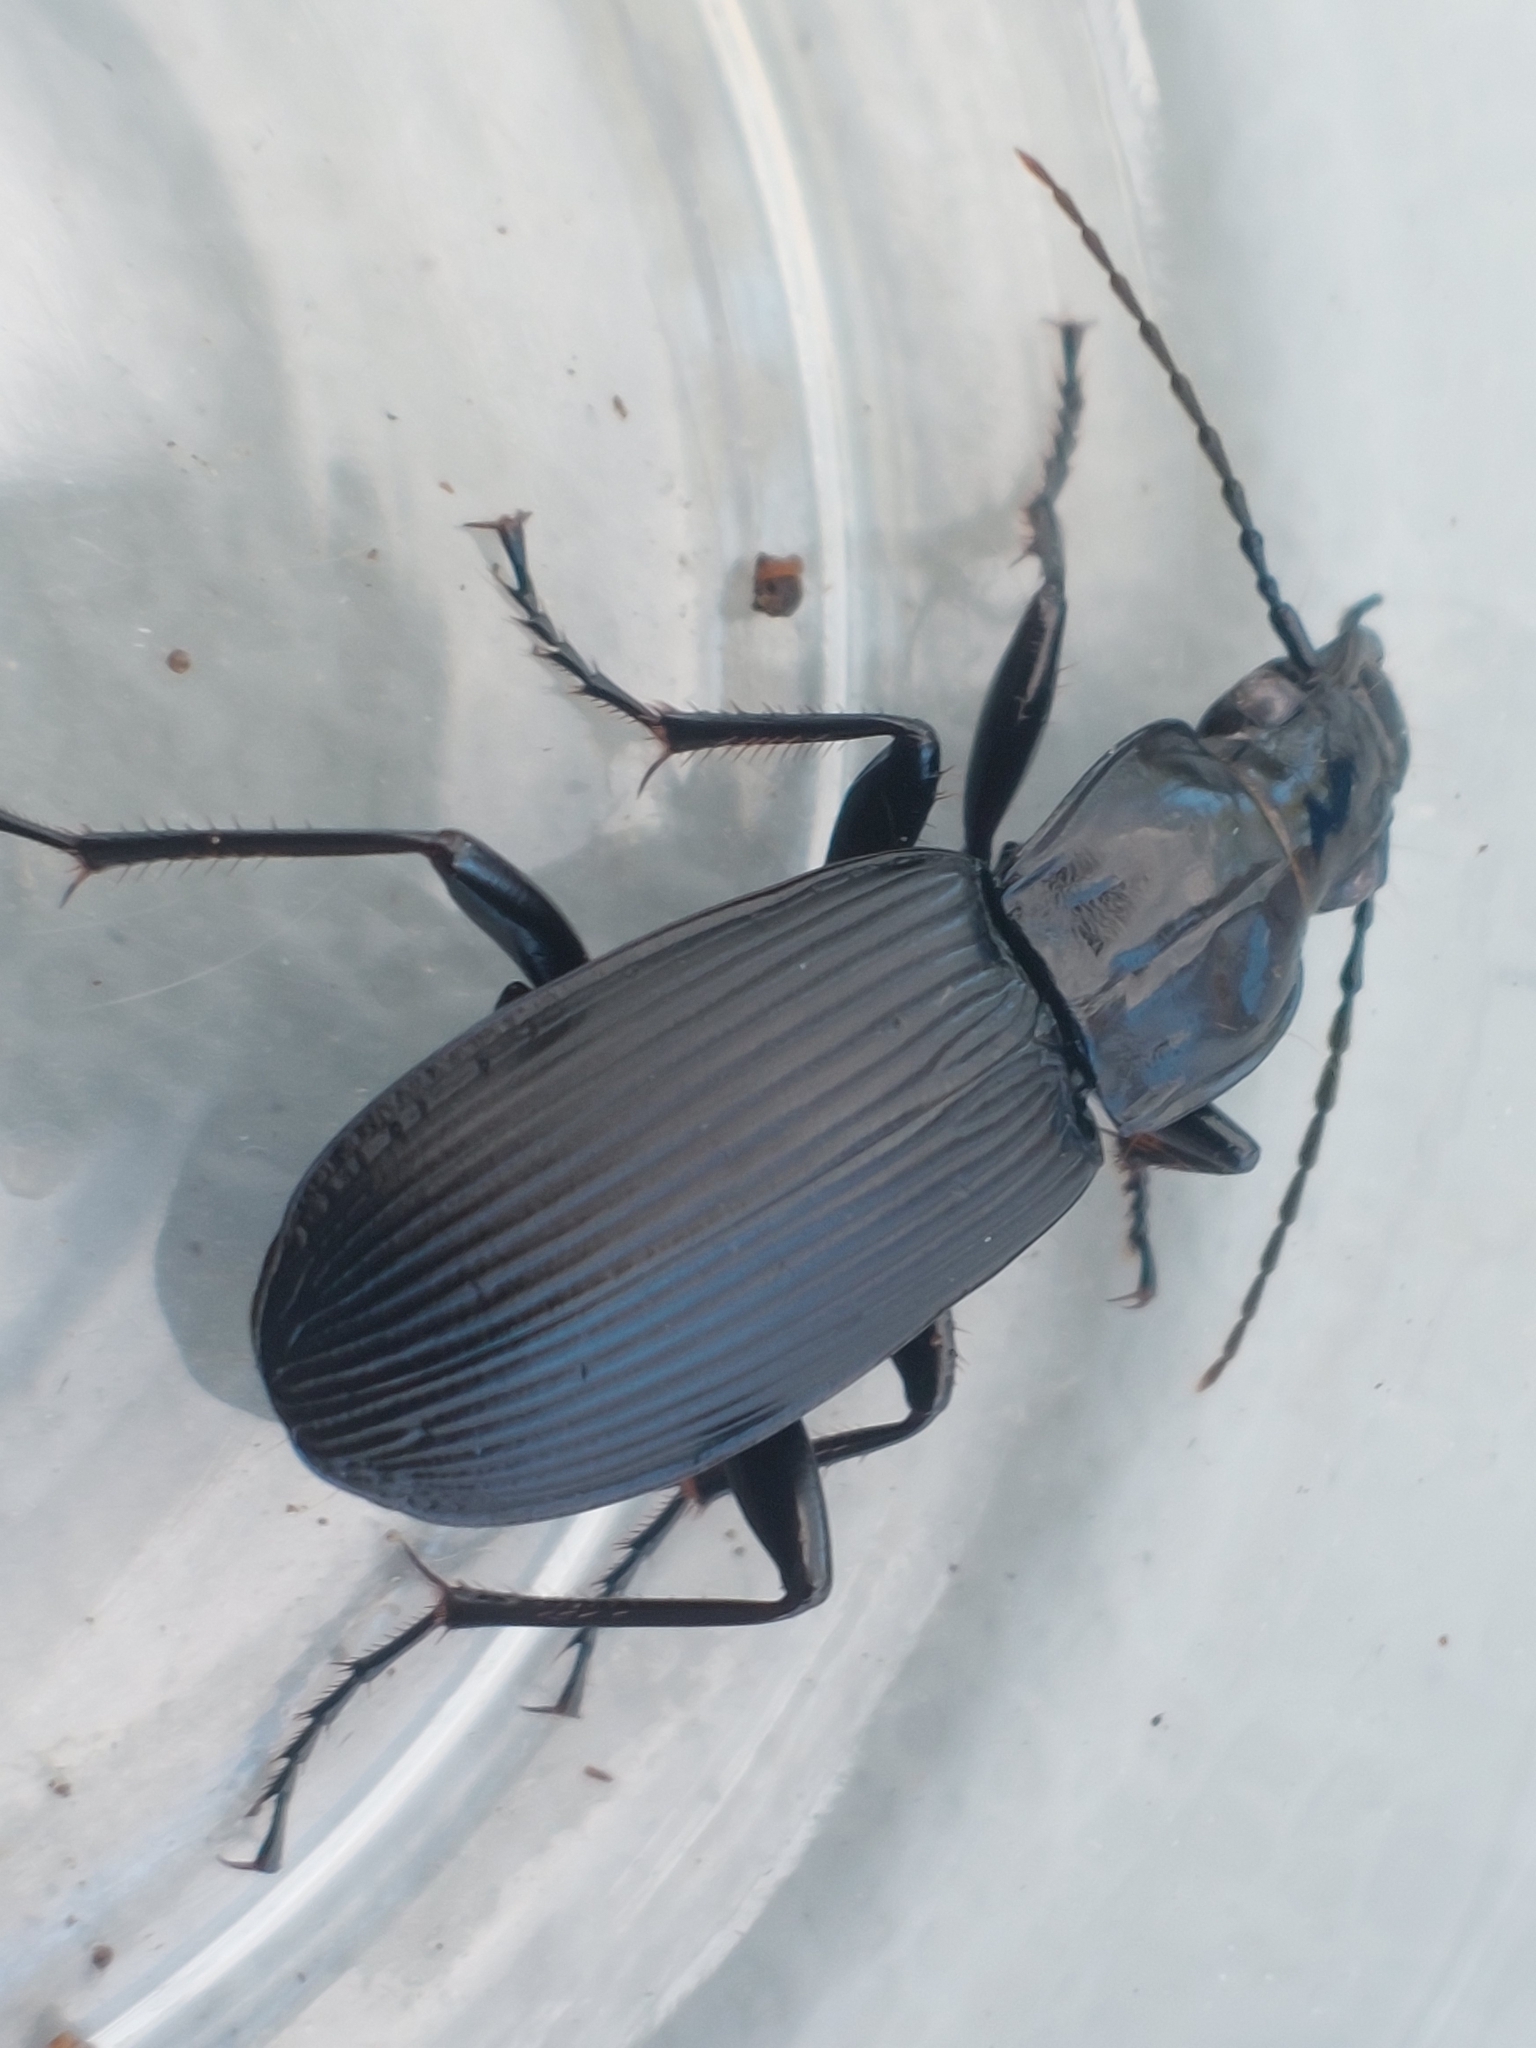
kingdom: Animalia
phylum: Arthropoda
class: Insecta
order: Coleoptera
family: Carabidae
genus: Pterostichus
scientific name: Pterostichus niger
